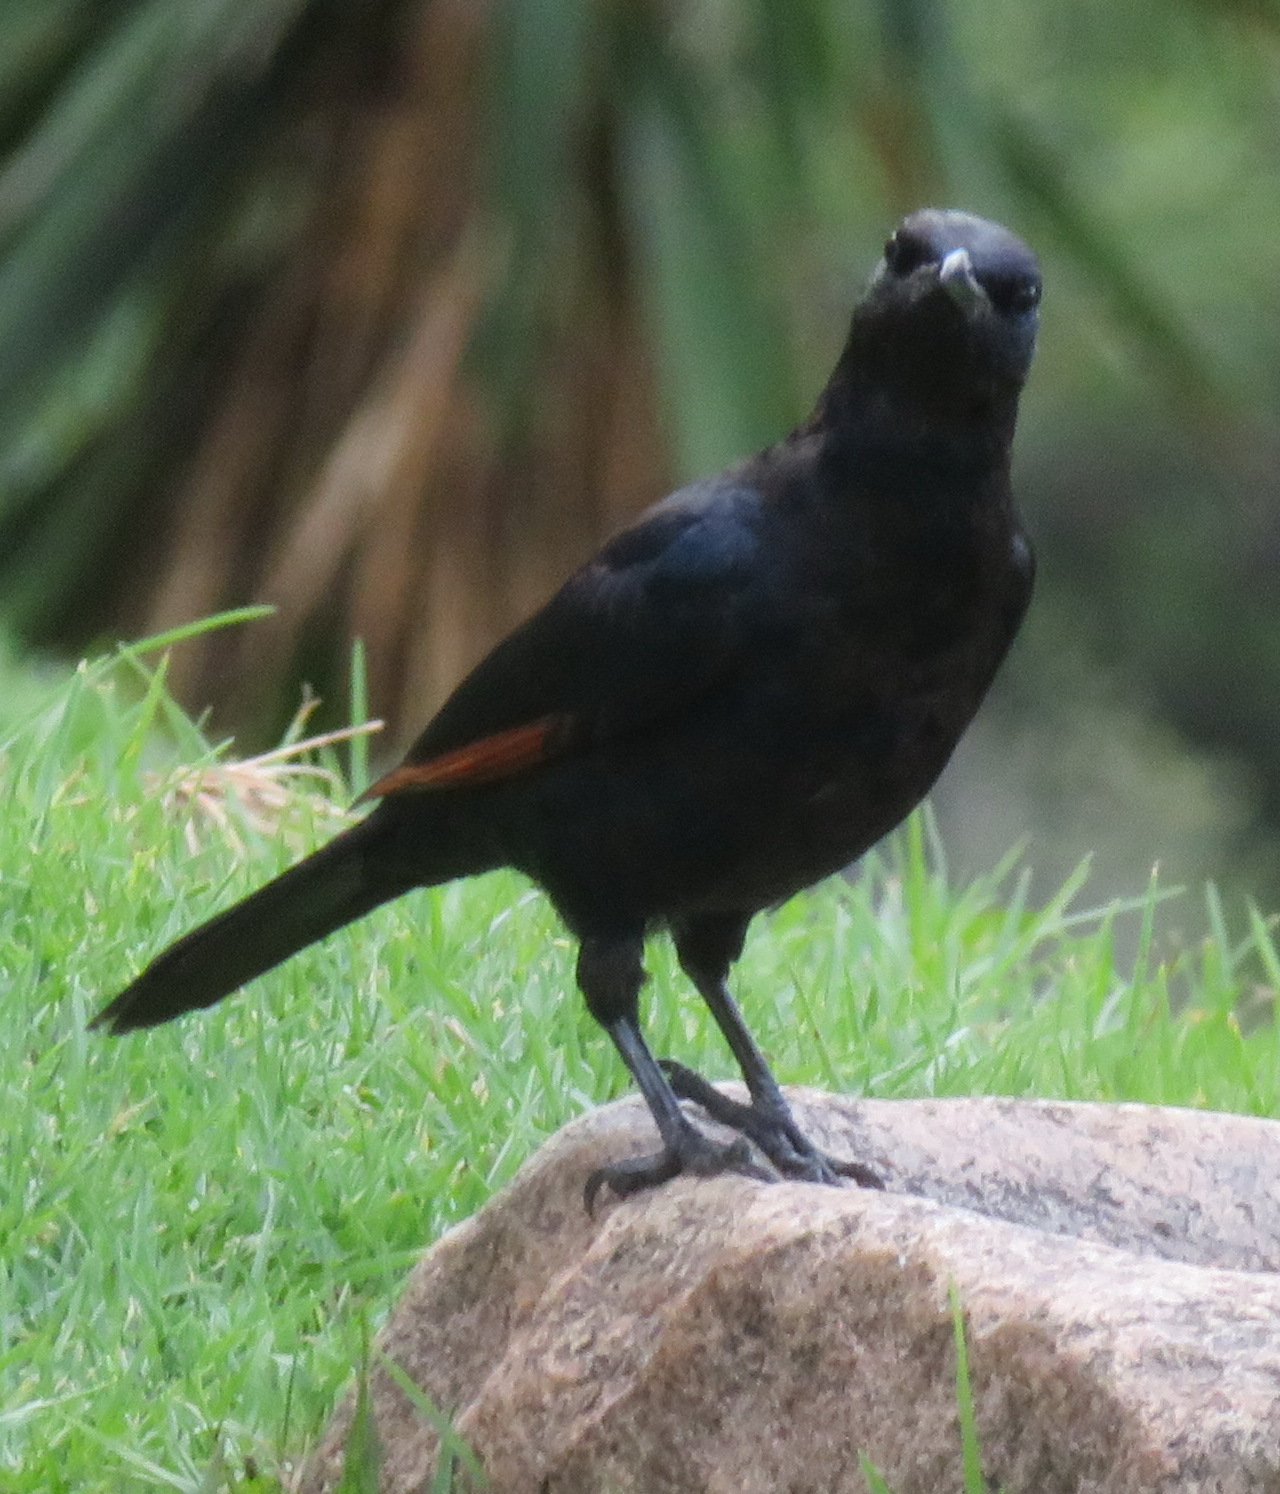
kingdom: Animalia
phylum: Chordata
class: Aves
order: Passeriformes
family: Sturnidae
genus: Onychognathus
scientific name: Onychognathus morio
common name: Red-winged starling
